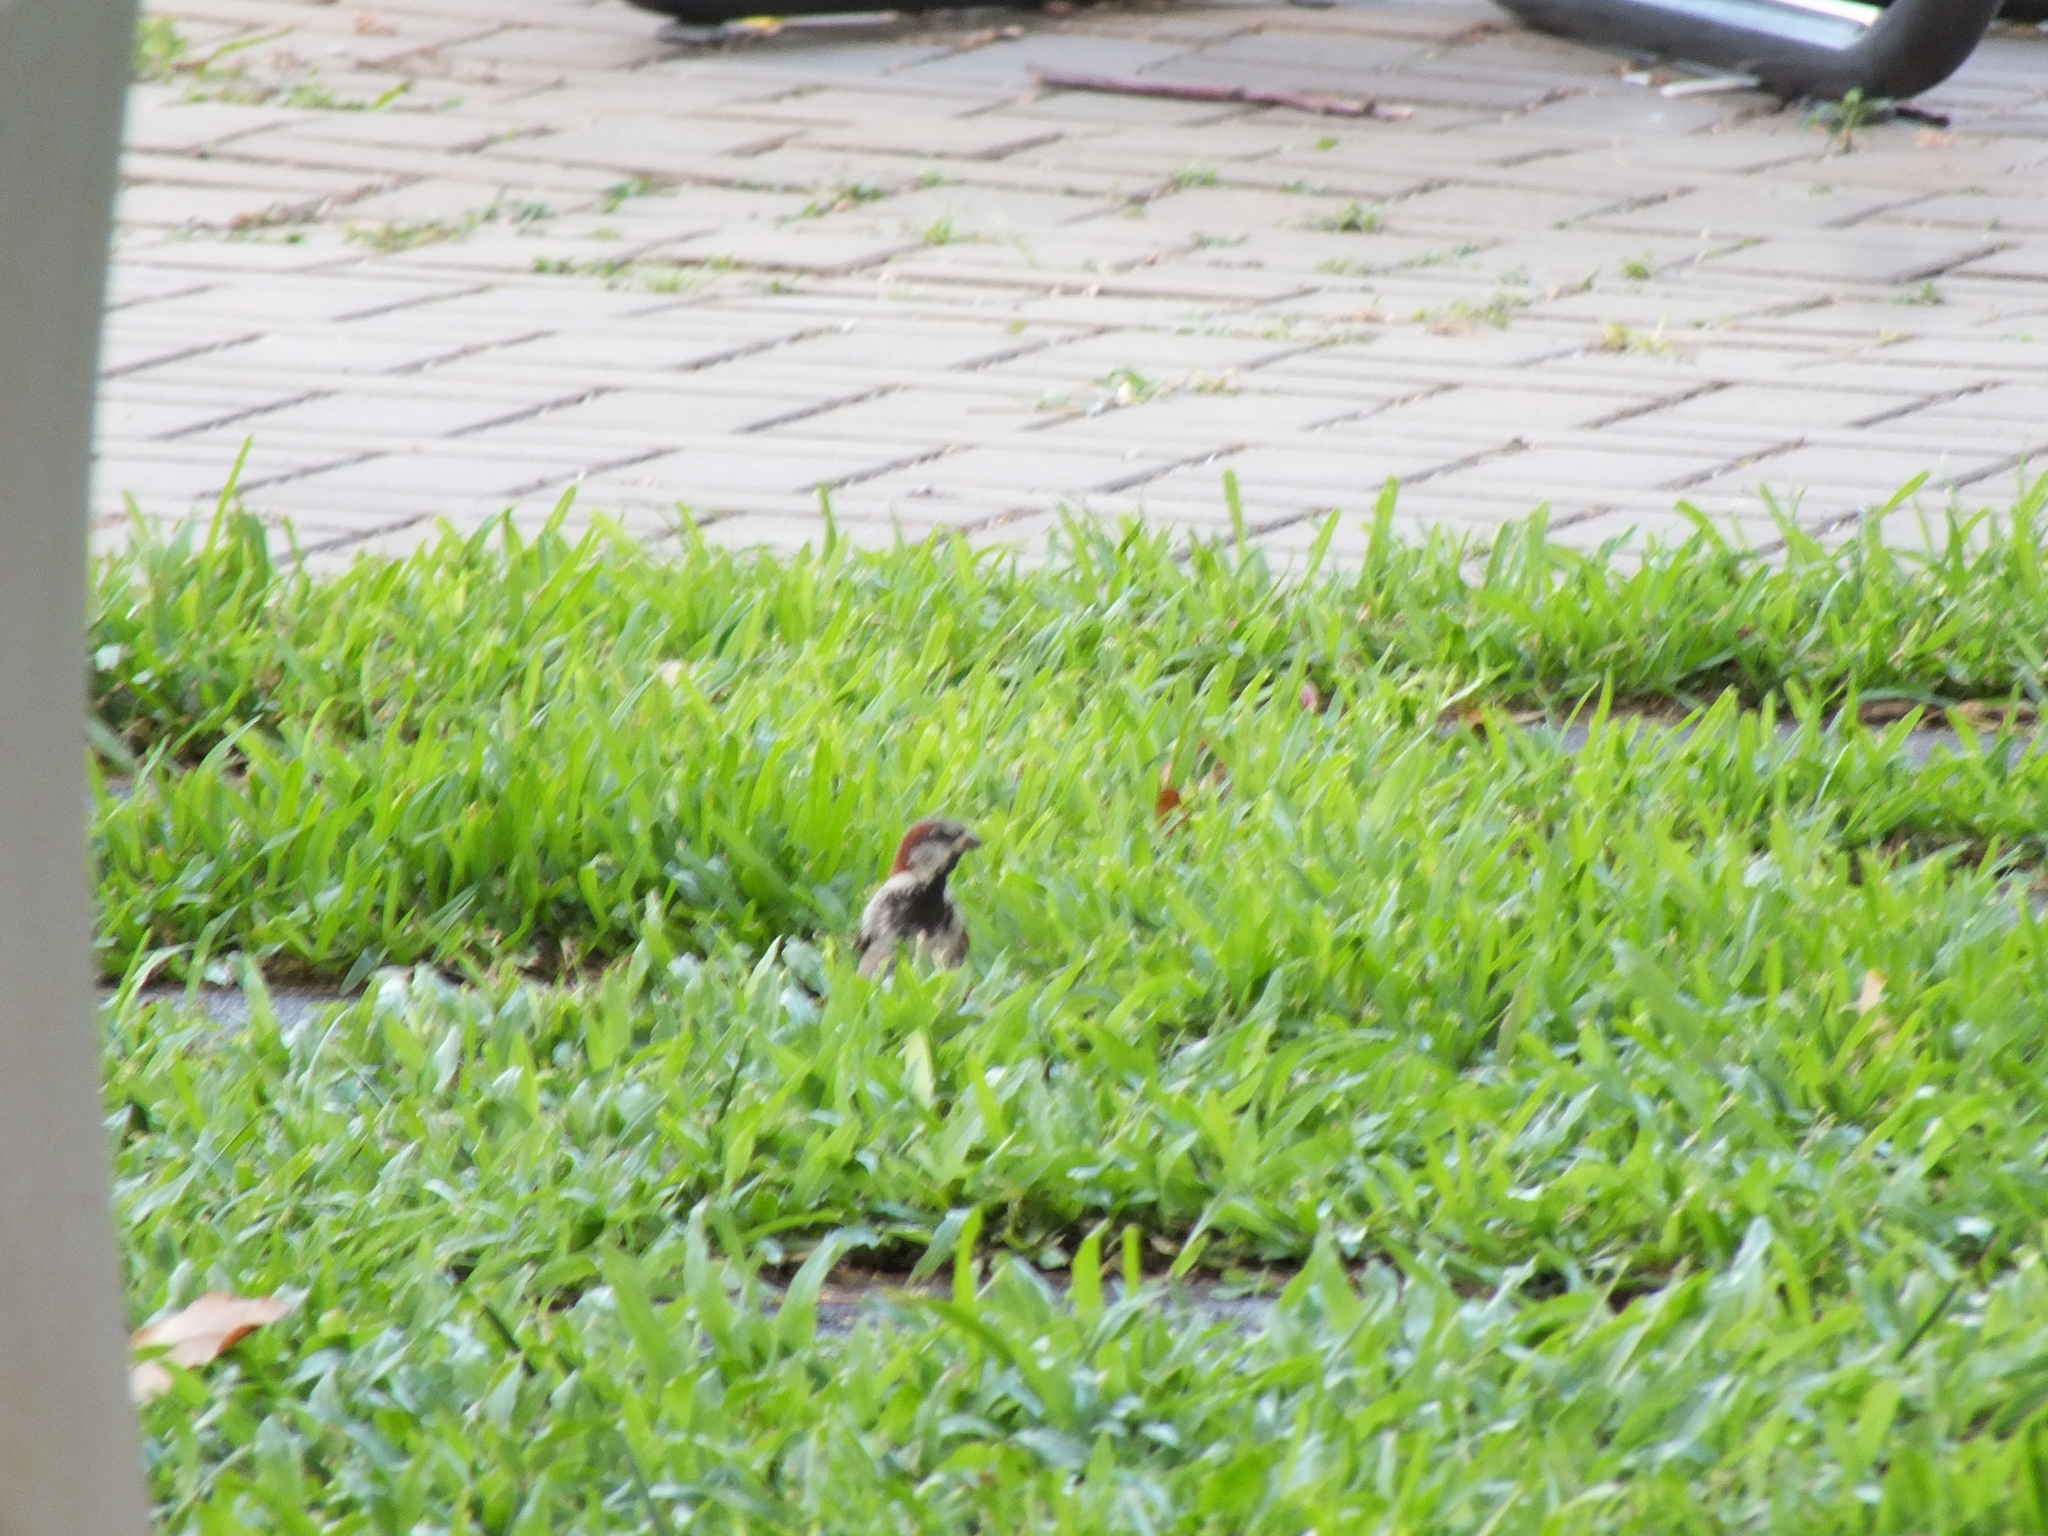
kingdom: Animalia
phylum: Chordata
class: Aves
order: Passeriformes
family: Passeridae
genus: Passer
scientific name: Passer domesticus
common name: House sparrow
